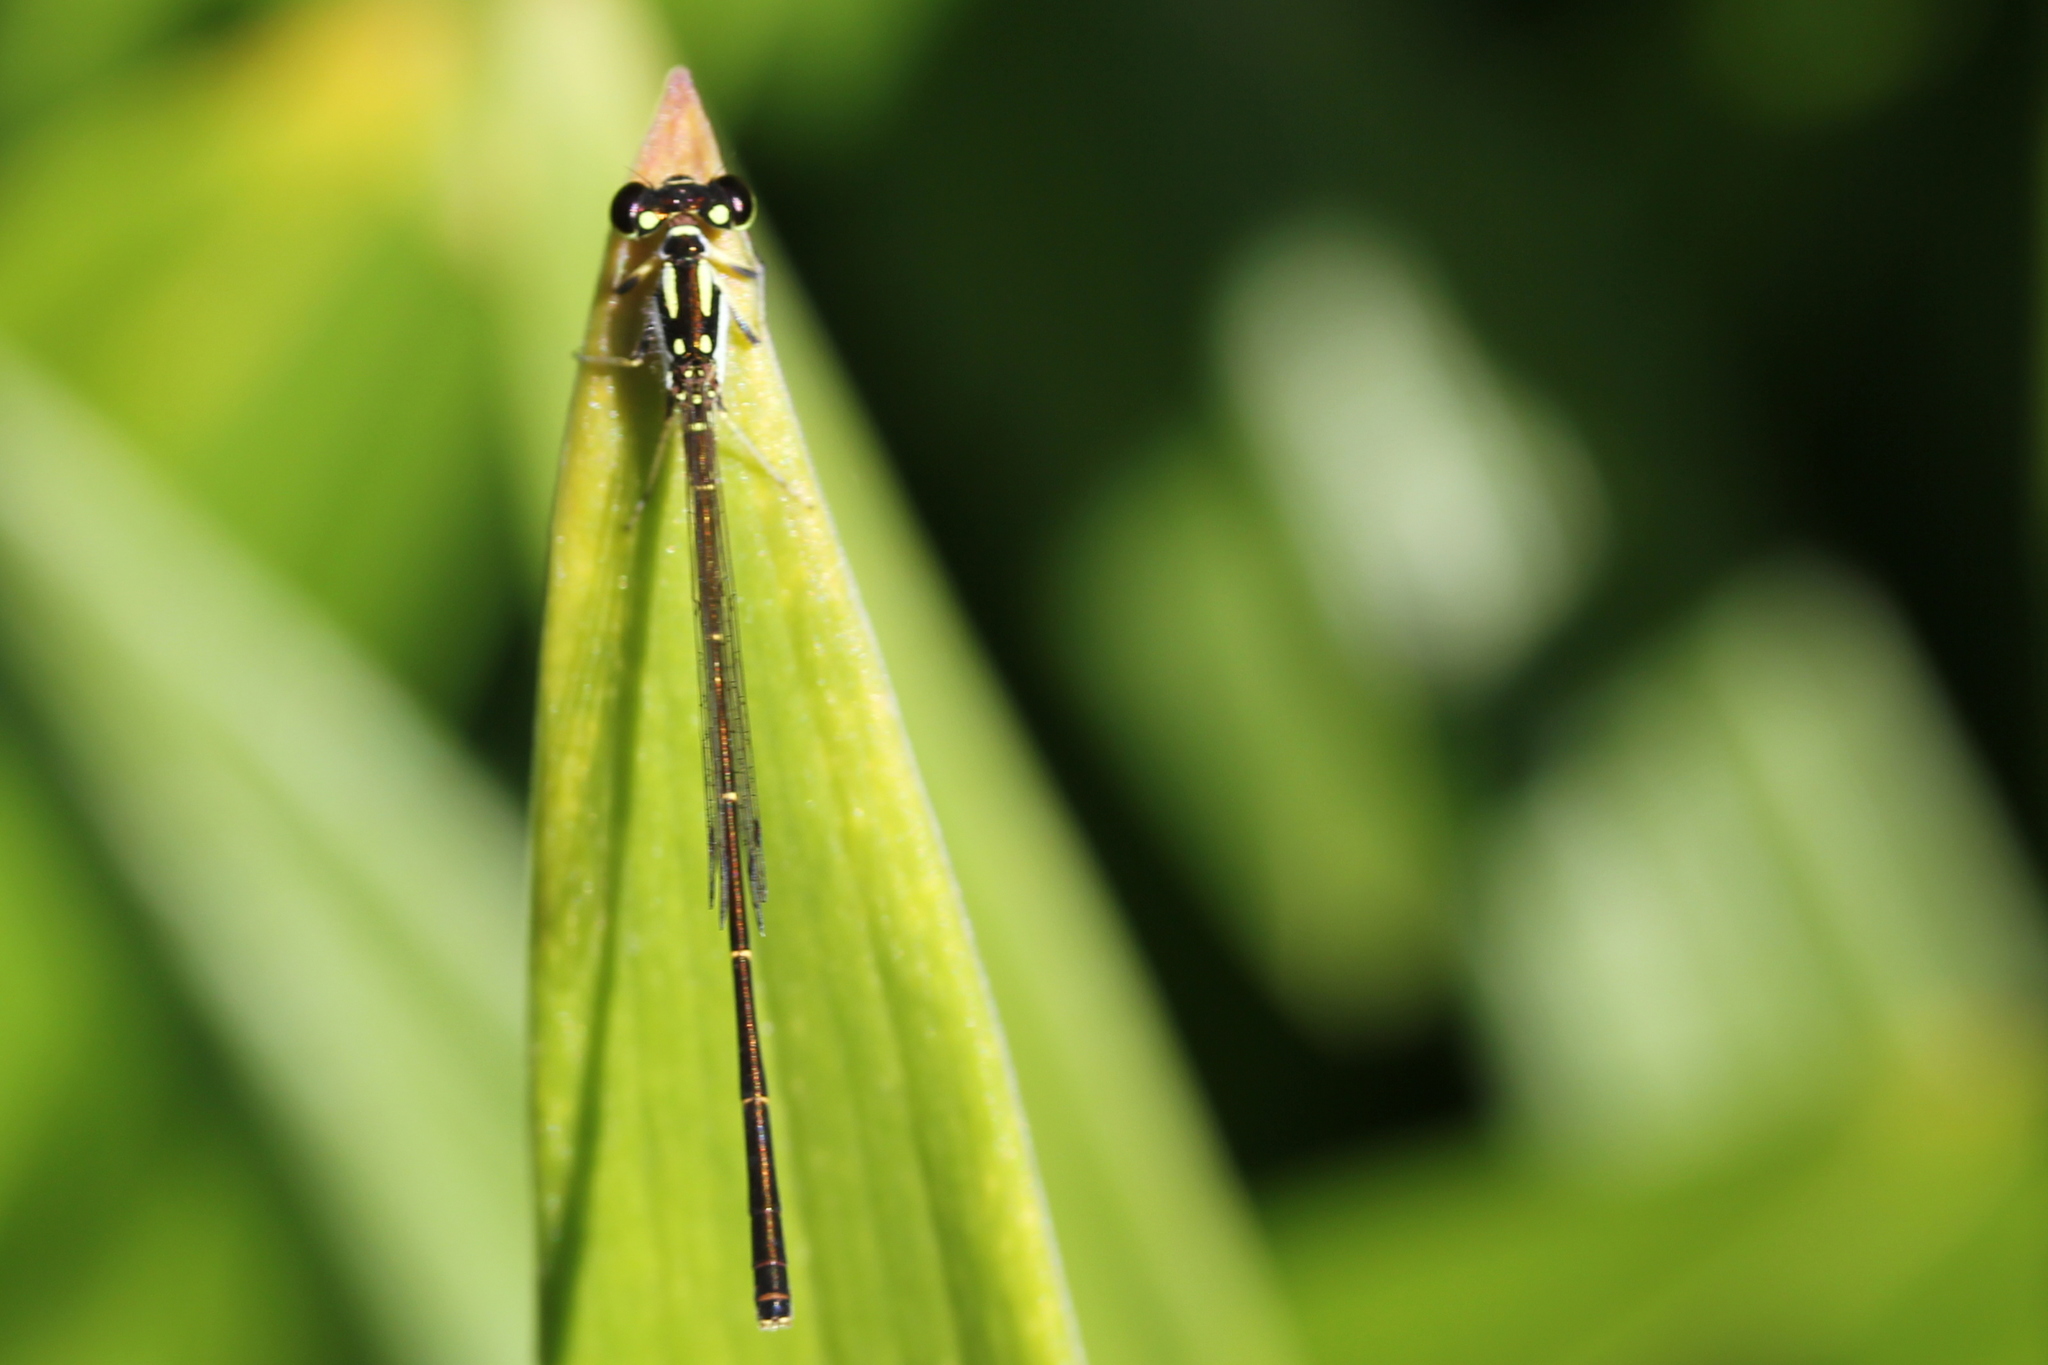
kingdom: Animalia
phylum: Arthropoda
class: Insecta
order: Odonata
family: Coenagrionidae
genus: Ischnura
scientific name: Ischnura posita
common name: Fragile forktail
